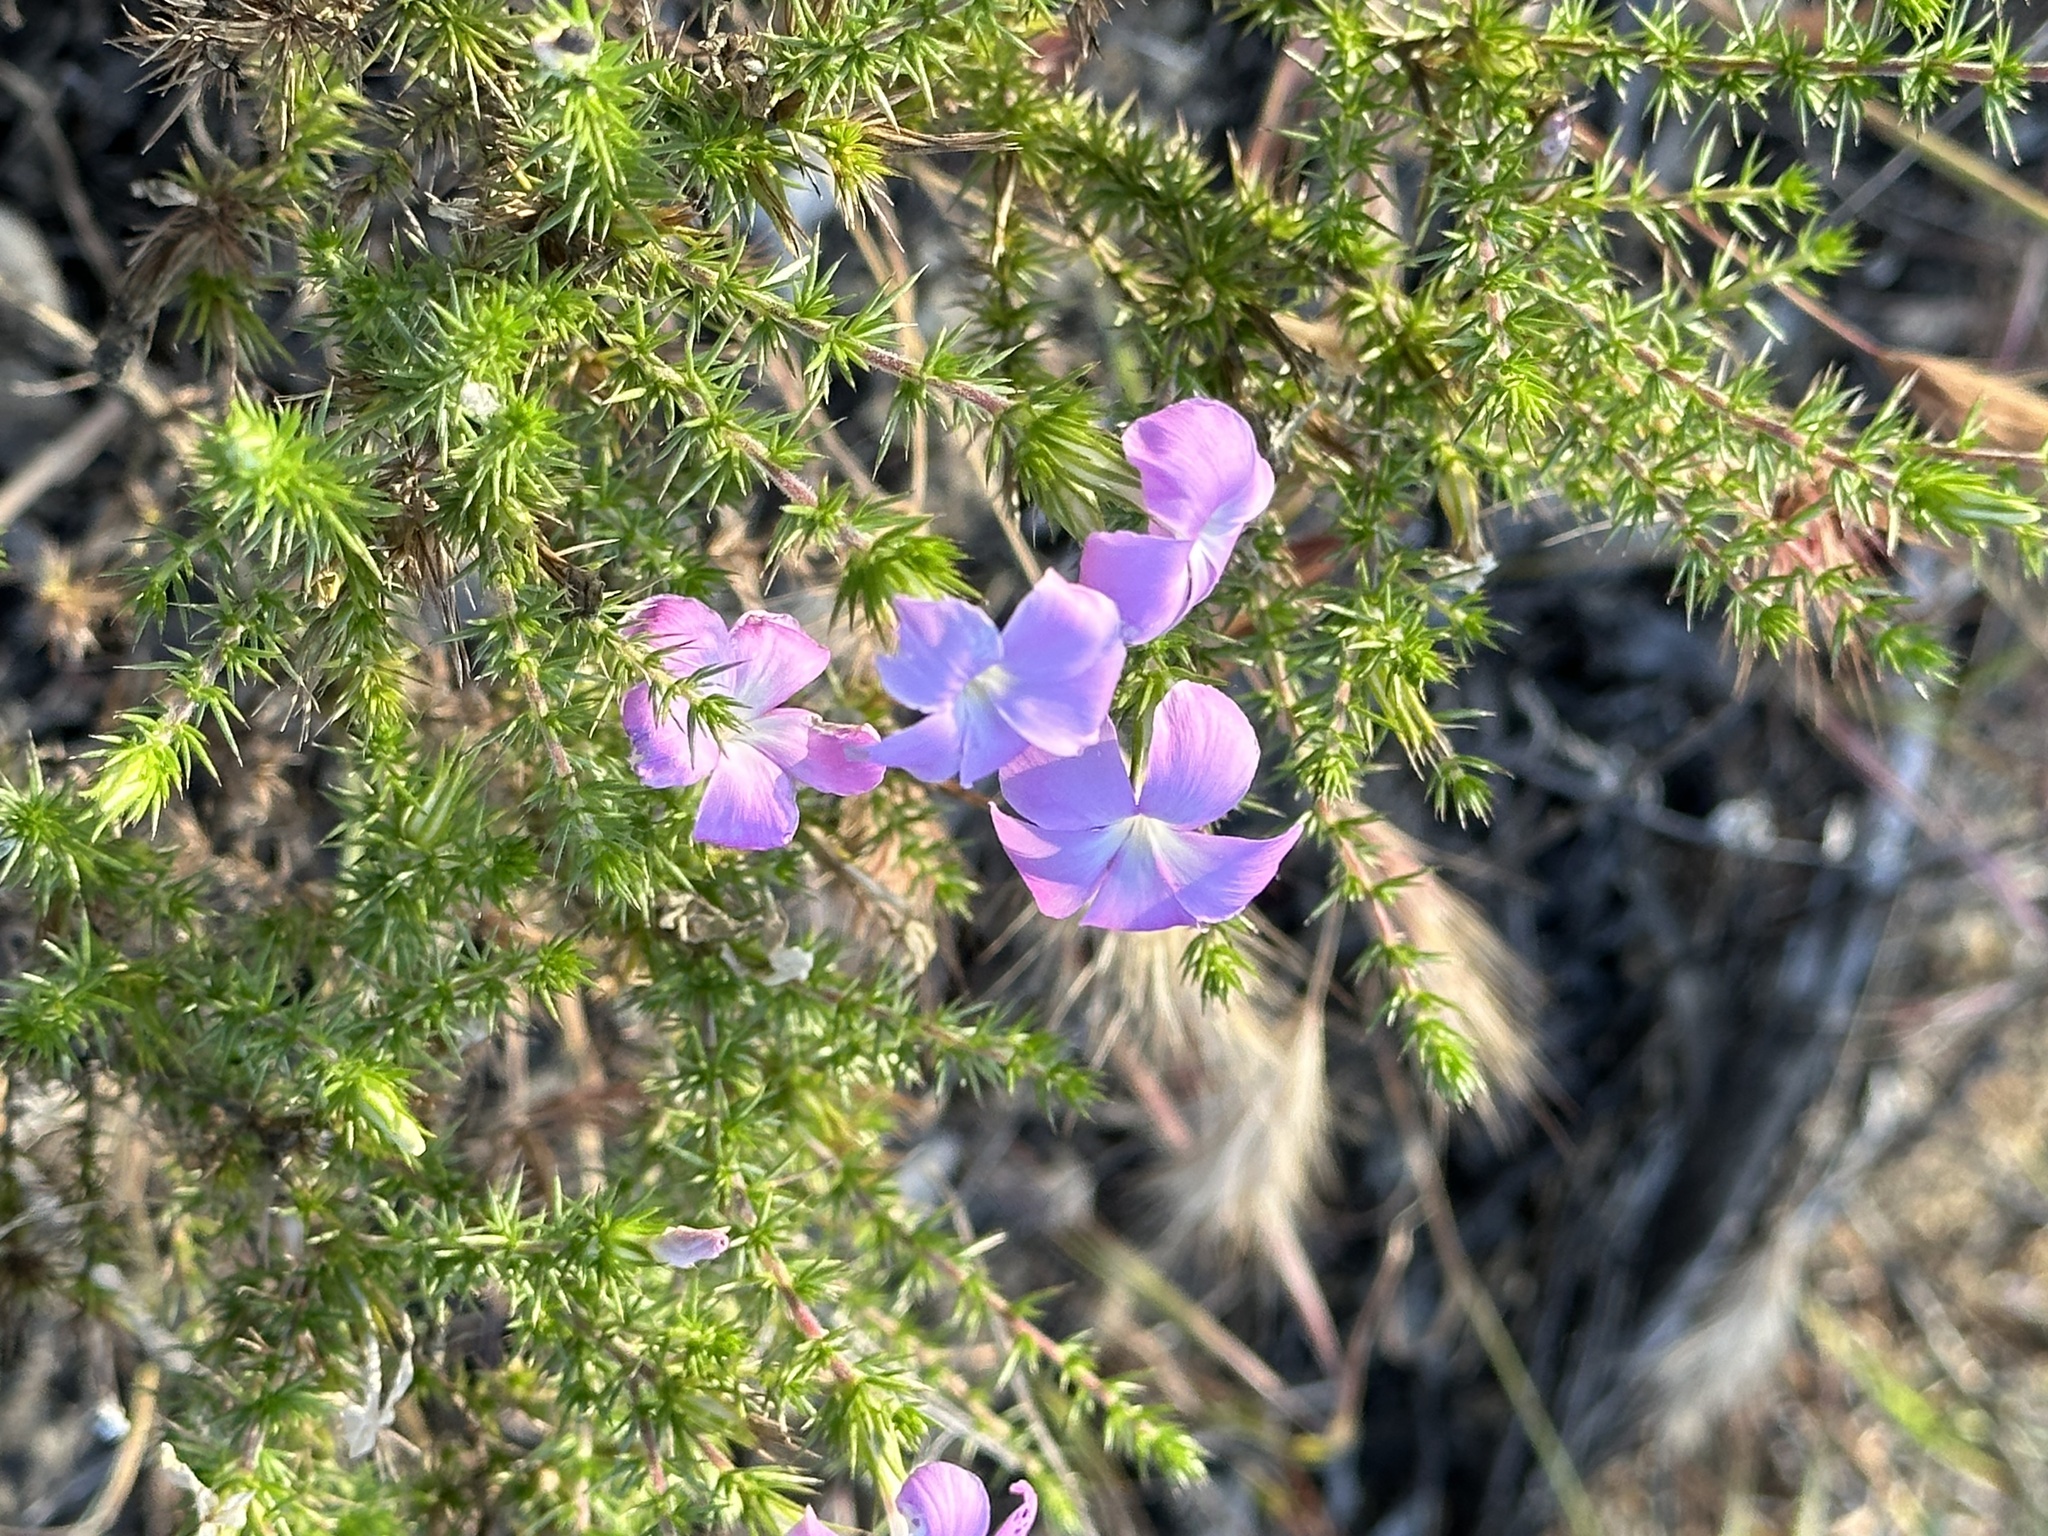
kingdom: Plantae
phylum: Tracheophyta
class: Magnoliopsida
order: Ericales
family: Polemoniaceae
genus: Linanthus
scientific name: Linanthus californicus
